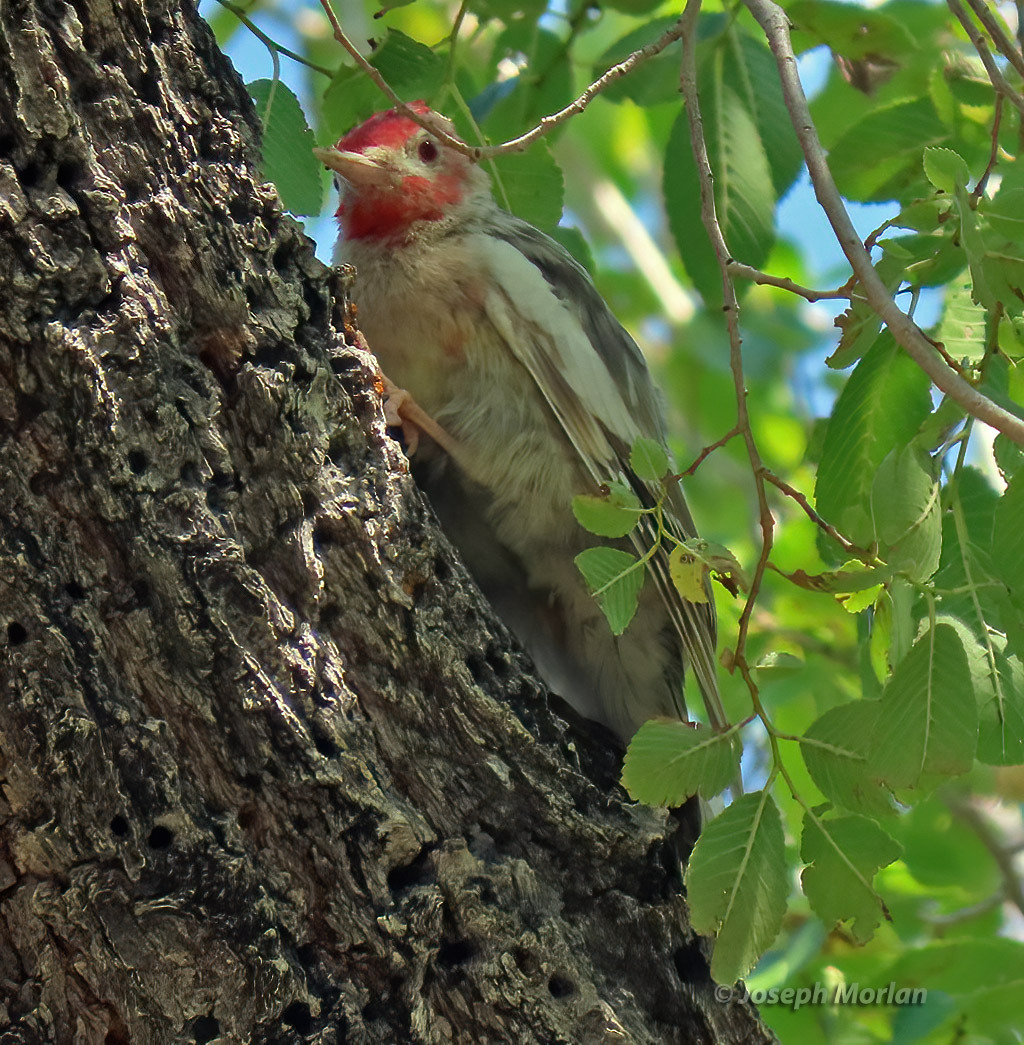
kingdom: Animalia
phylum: Chordata
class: Aves
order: Piciformes
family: Picidae
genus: Sphyrapicus
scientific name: Sphyrapicus ruber
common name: Red-breasted sapsucker
